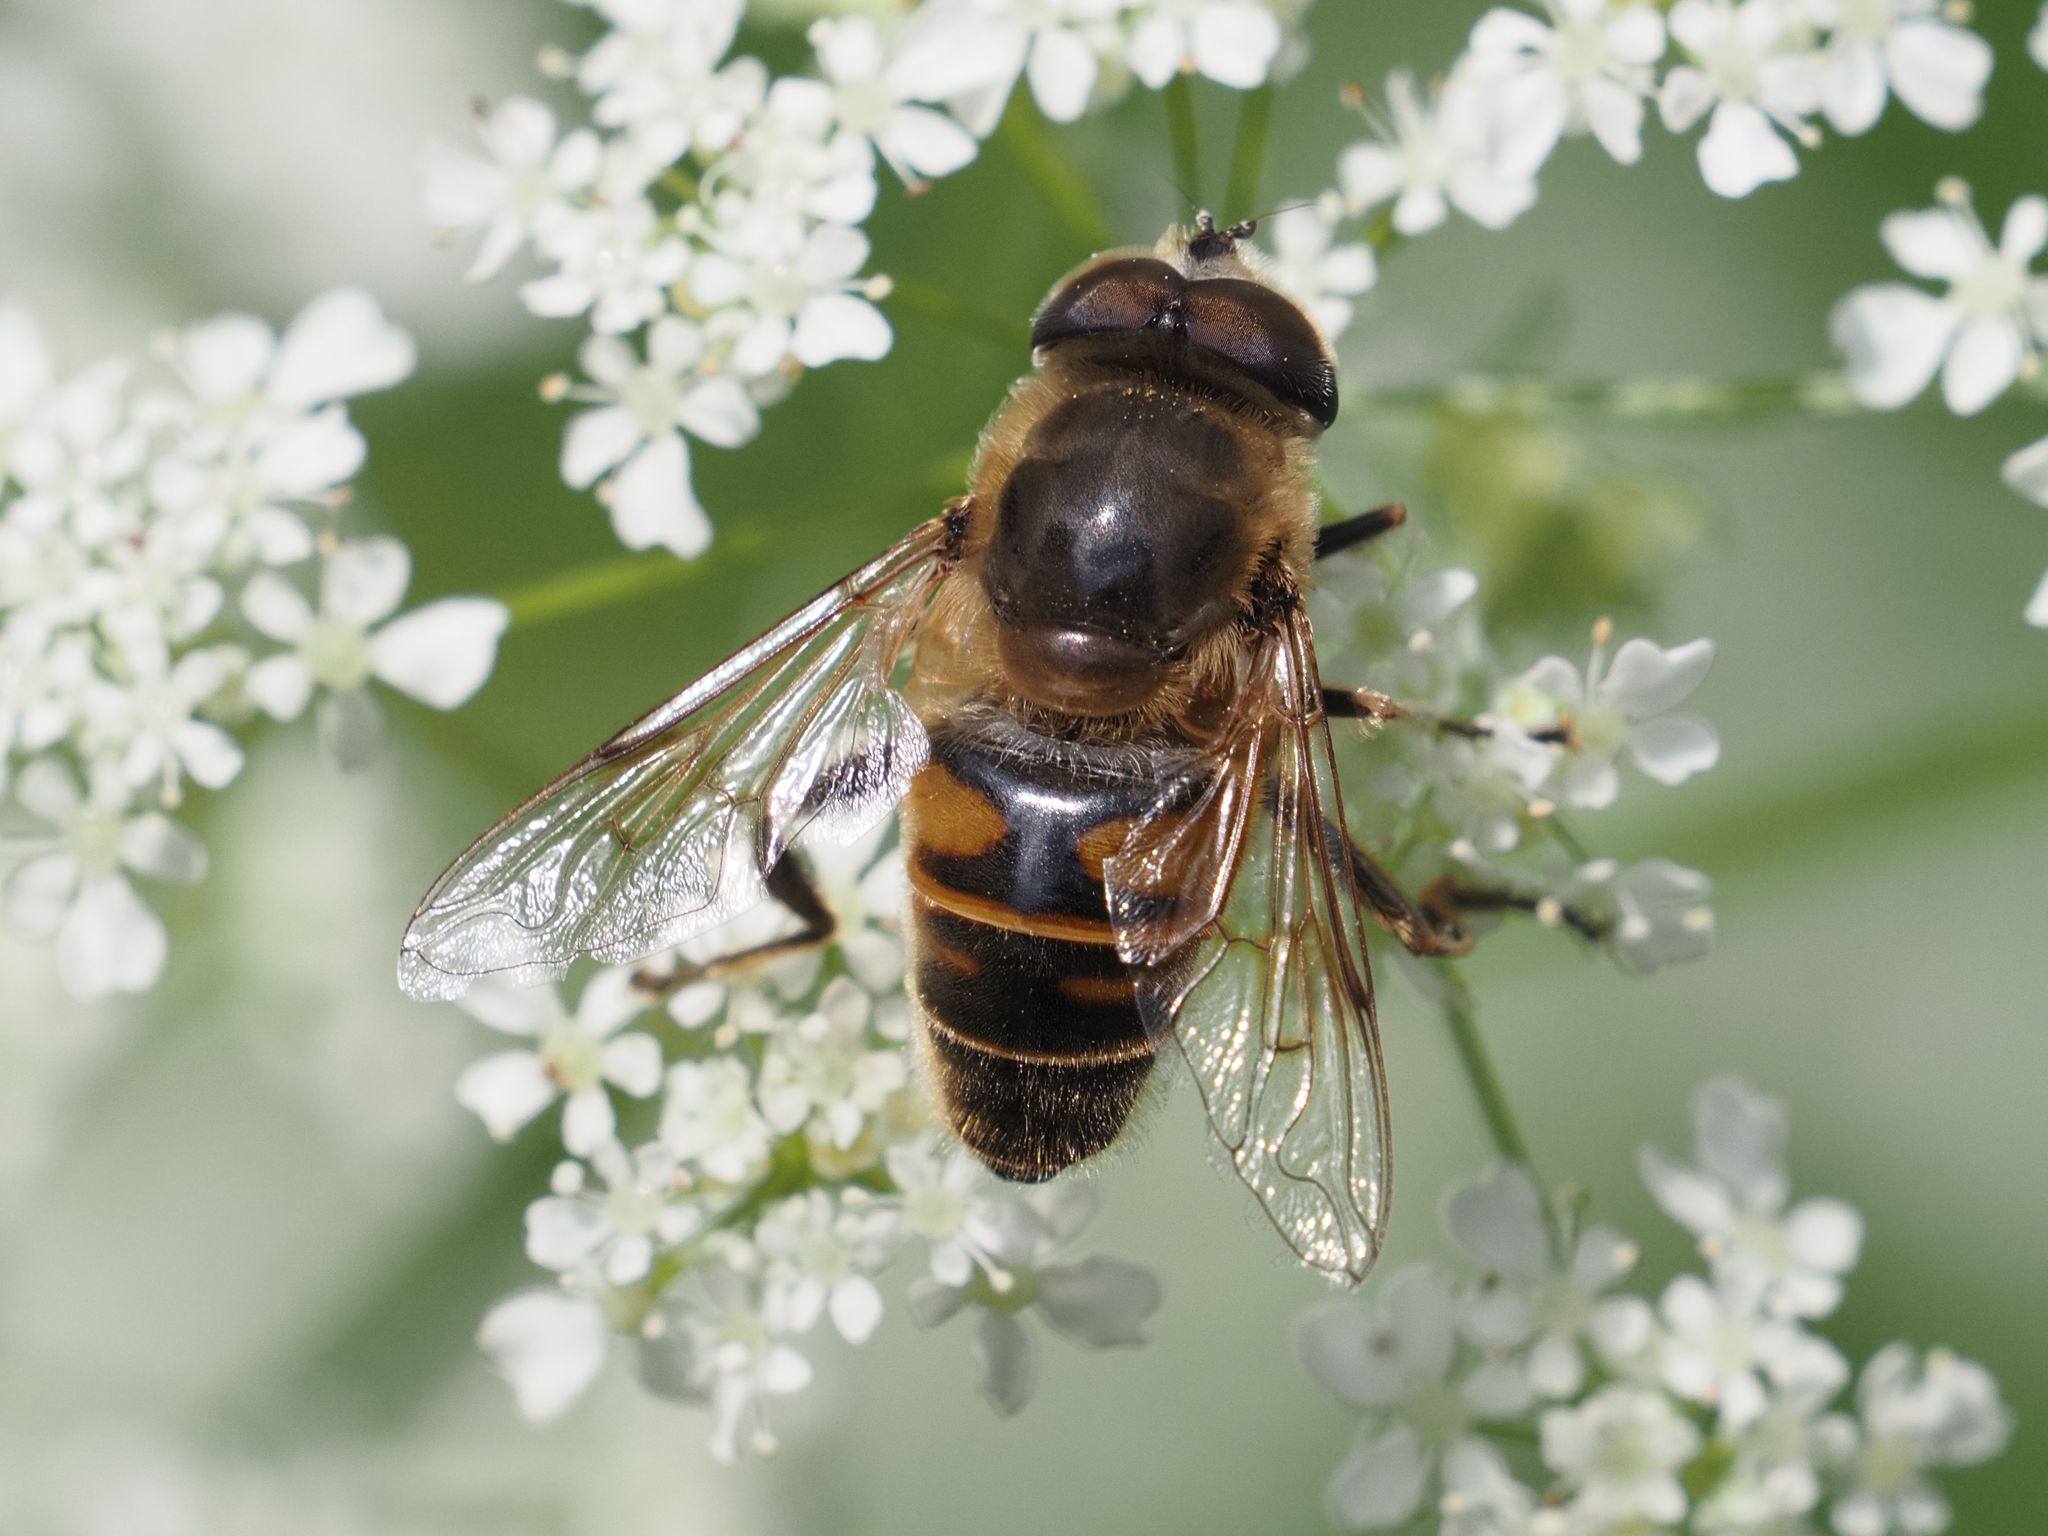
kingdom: Animalia
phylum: Arthropoda
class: Insecta
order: Diptera
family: Syrphidae
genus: Eristalis
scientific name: Eristalis tenax
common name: Drone fly
